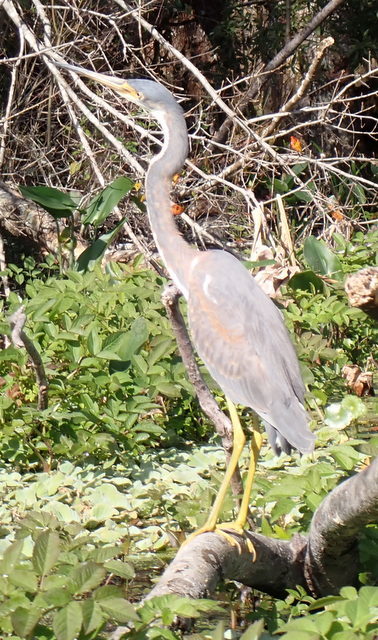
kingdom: Animalia
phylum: Chordata
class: Aves
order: Pelecaniformes
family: Ardeidae
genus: Egretta
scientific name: Egretta tricolor
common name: Tricolored heron
